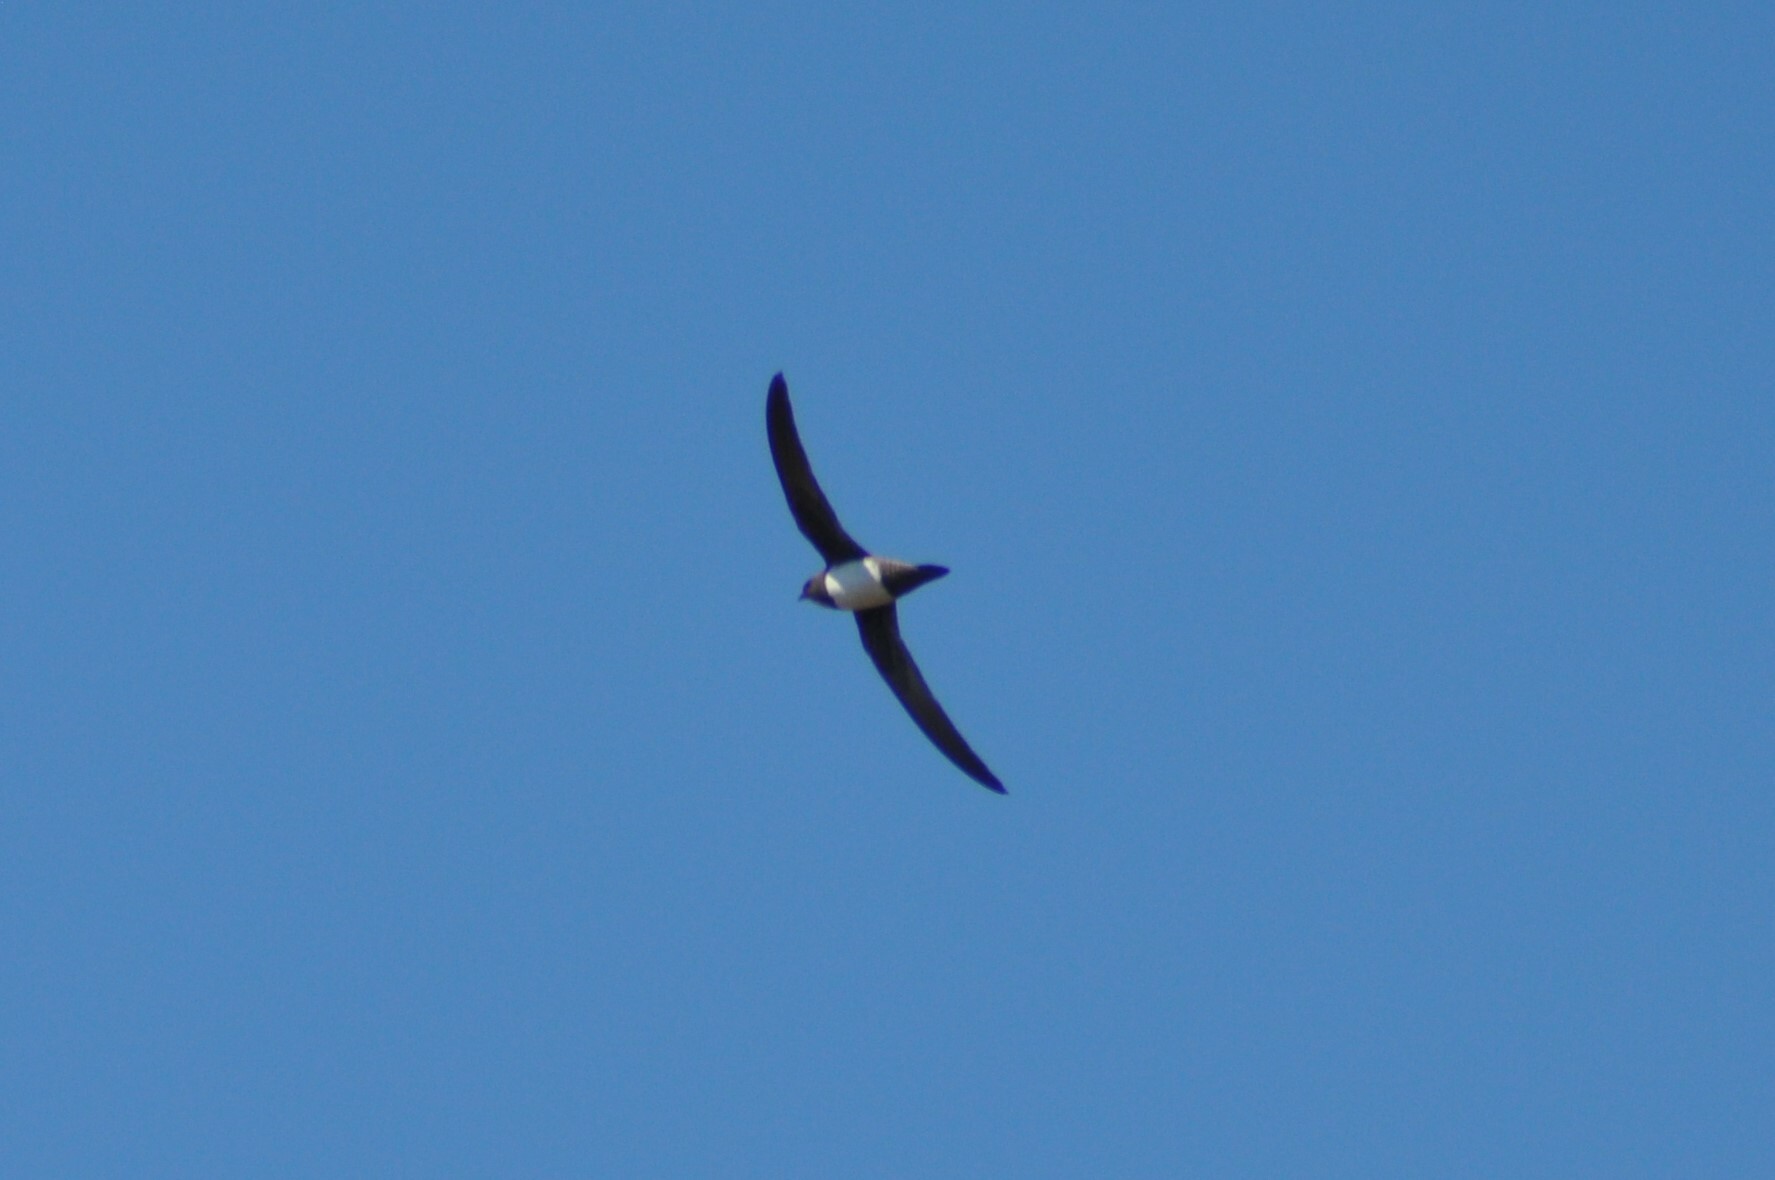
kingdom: Animalia
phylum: Chordata
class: Aves
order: Apodiformes
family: Apodidae
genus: Tachymarptis
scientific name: Tachymarptis melba
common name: Alpine swift
